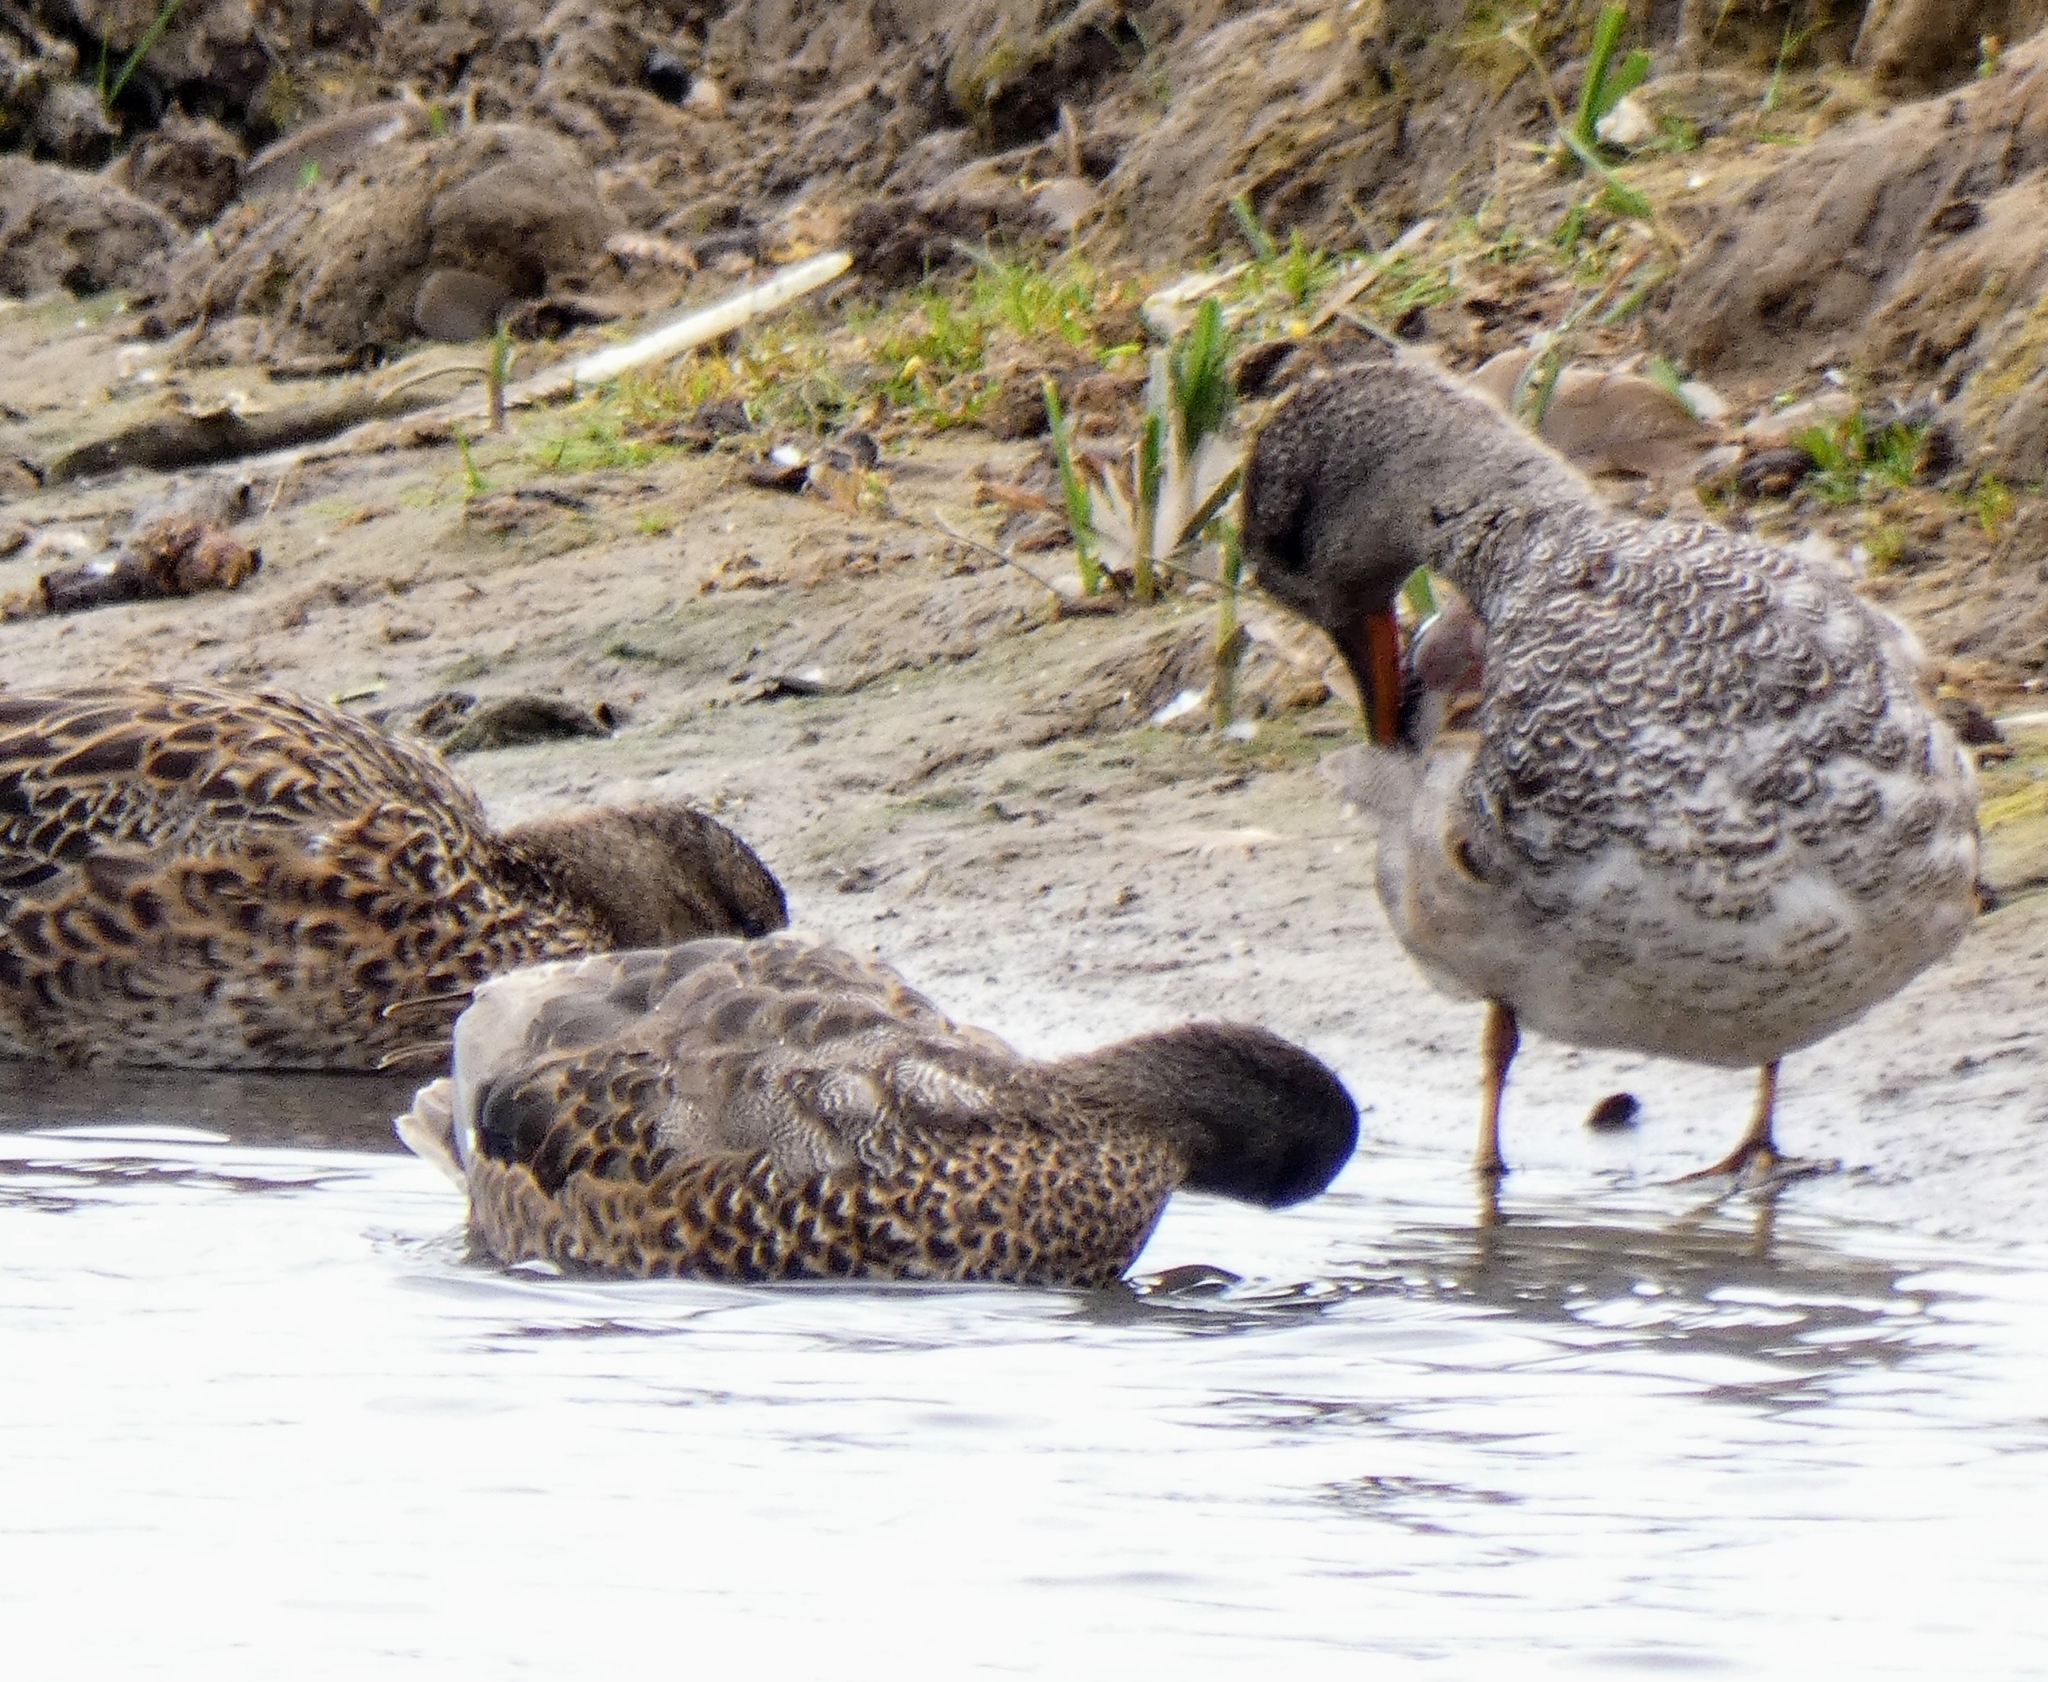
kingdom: Animalia
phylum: Chordata
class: Aves
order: Anseriformes
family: Anatidae
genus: Mareca
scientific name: Mareca strepera
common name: Gadwall
